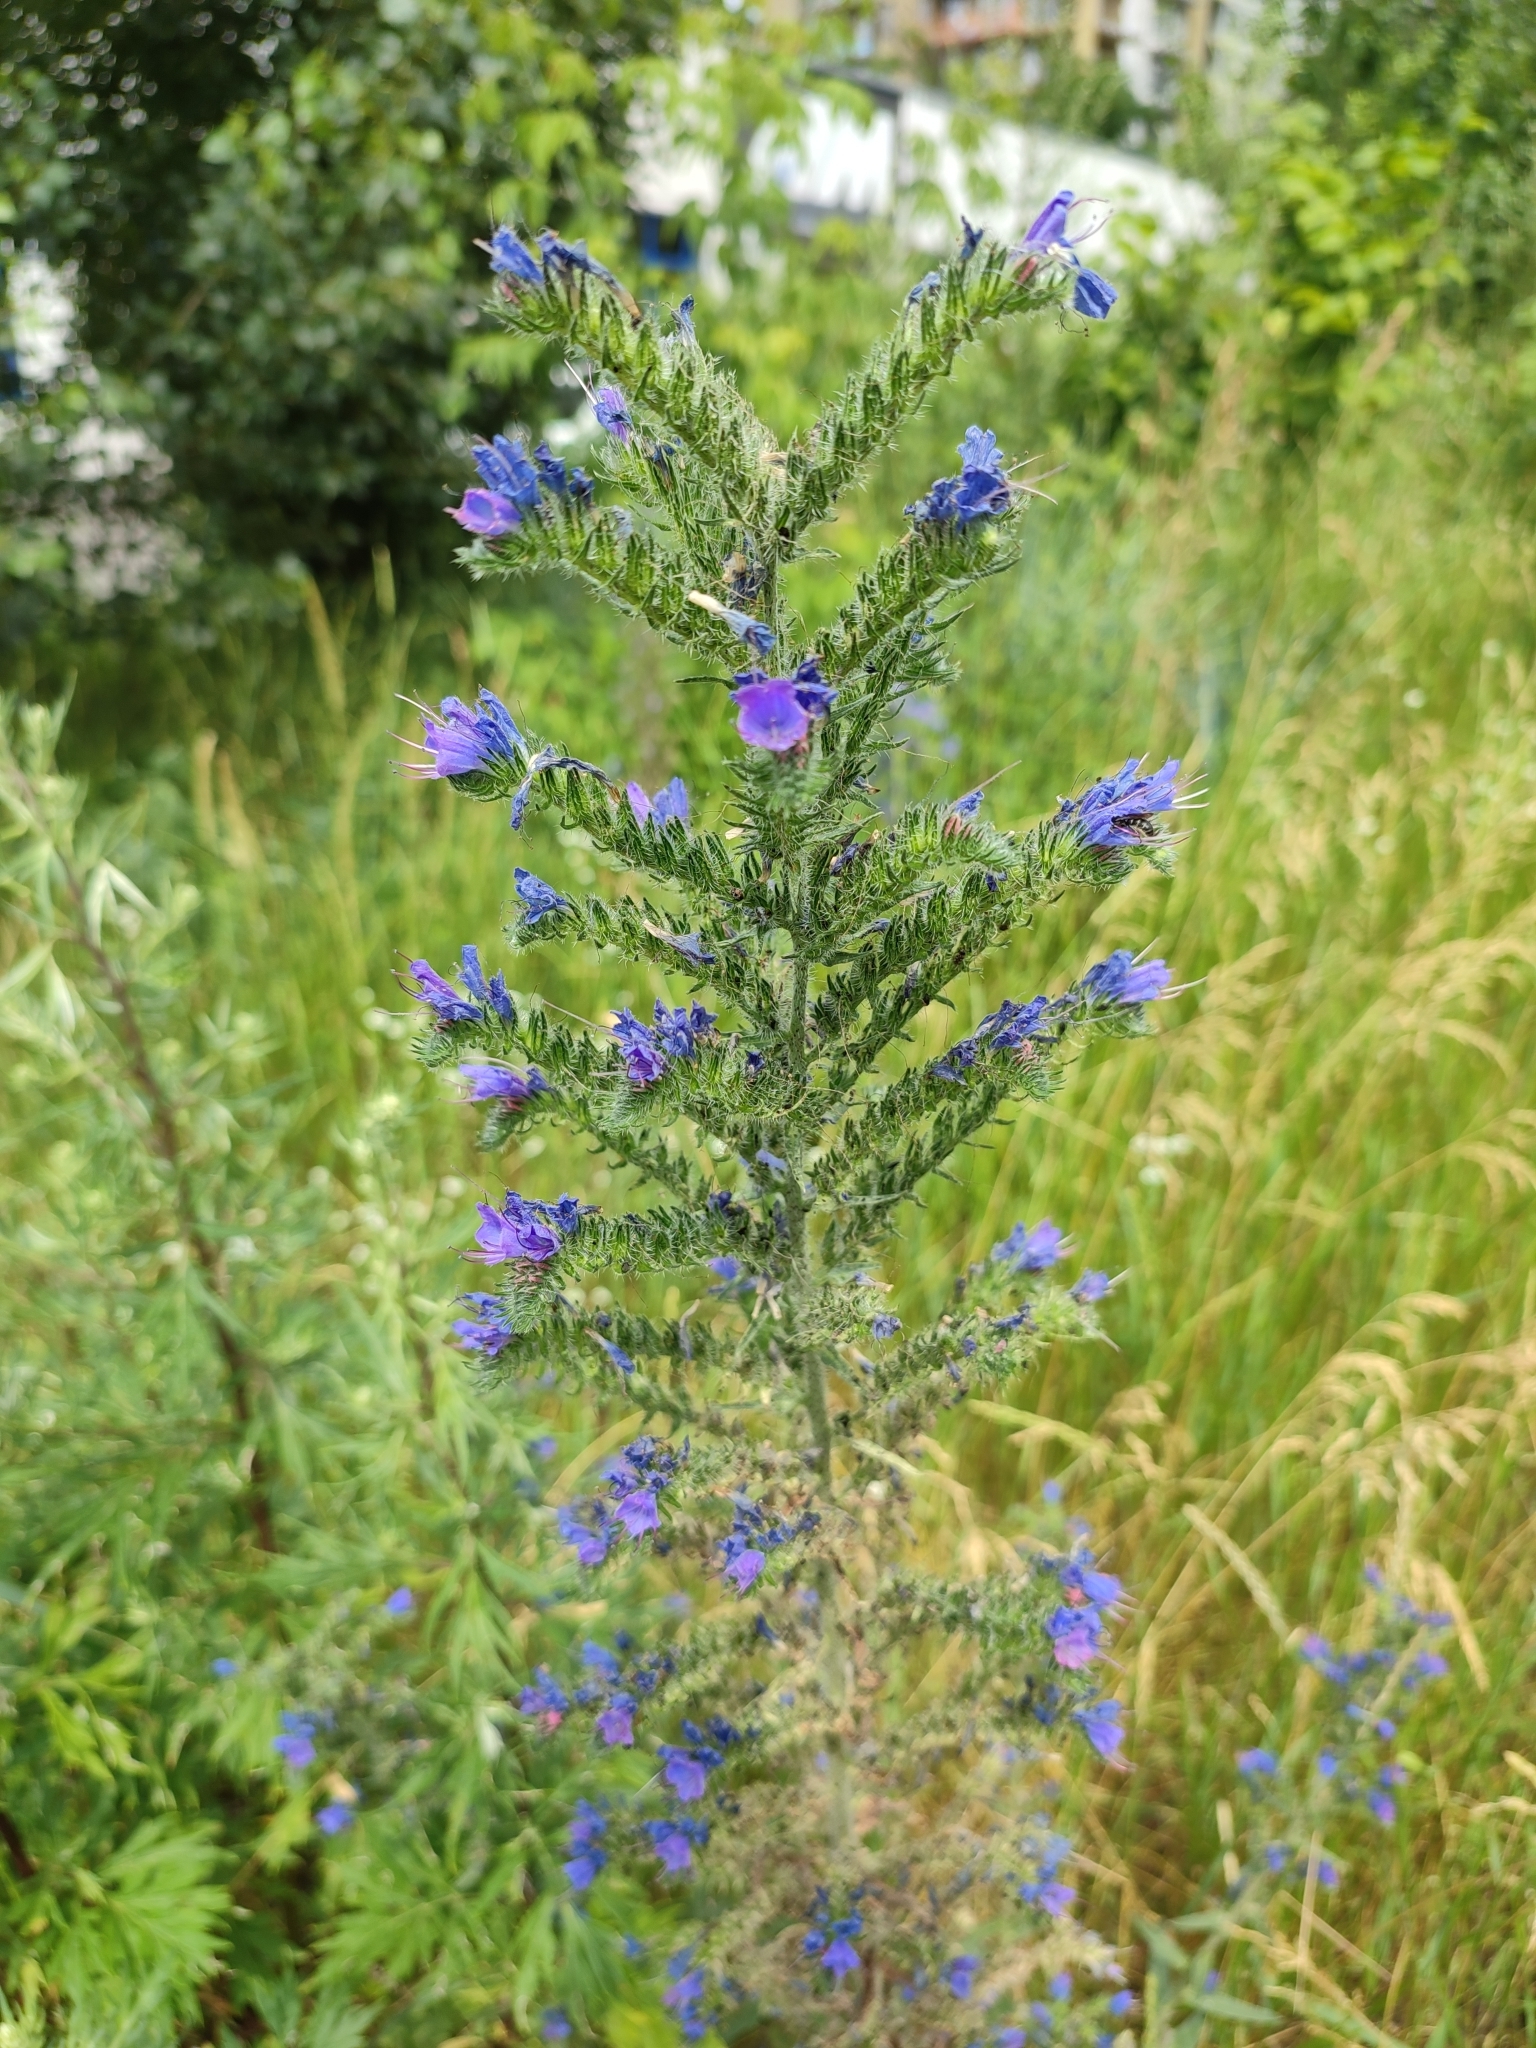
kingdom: Plantae
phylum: Tracheophyta
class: Magnoliopsida
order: Boraginales
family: Boraginaceae
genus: Echium
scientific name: Echium vulgare
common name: Common viper's bugloss
